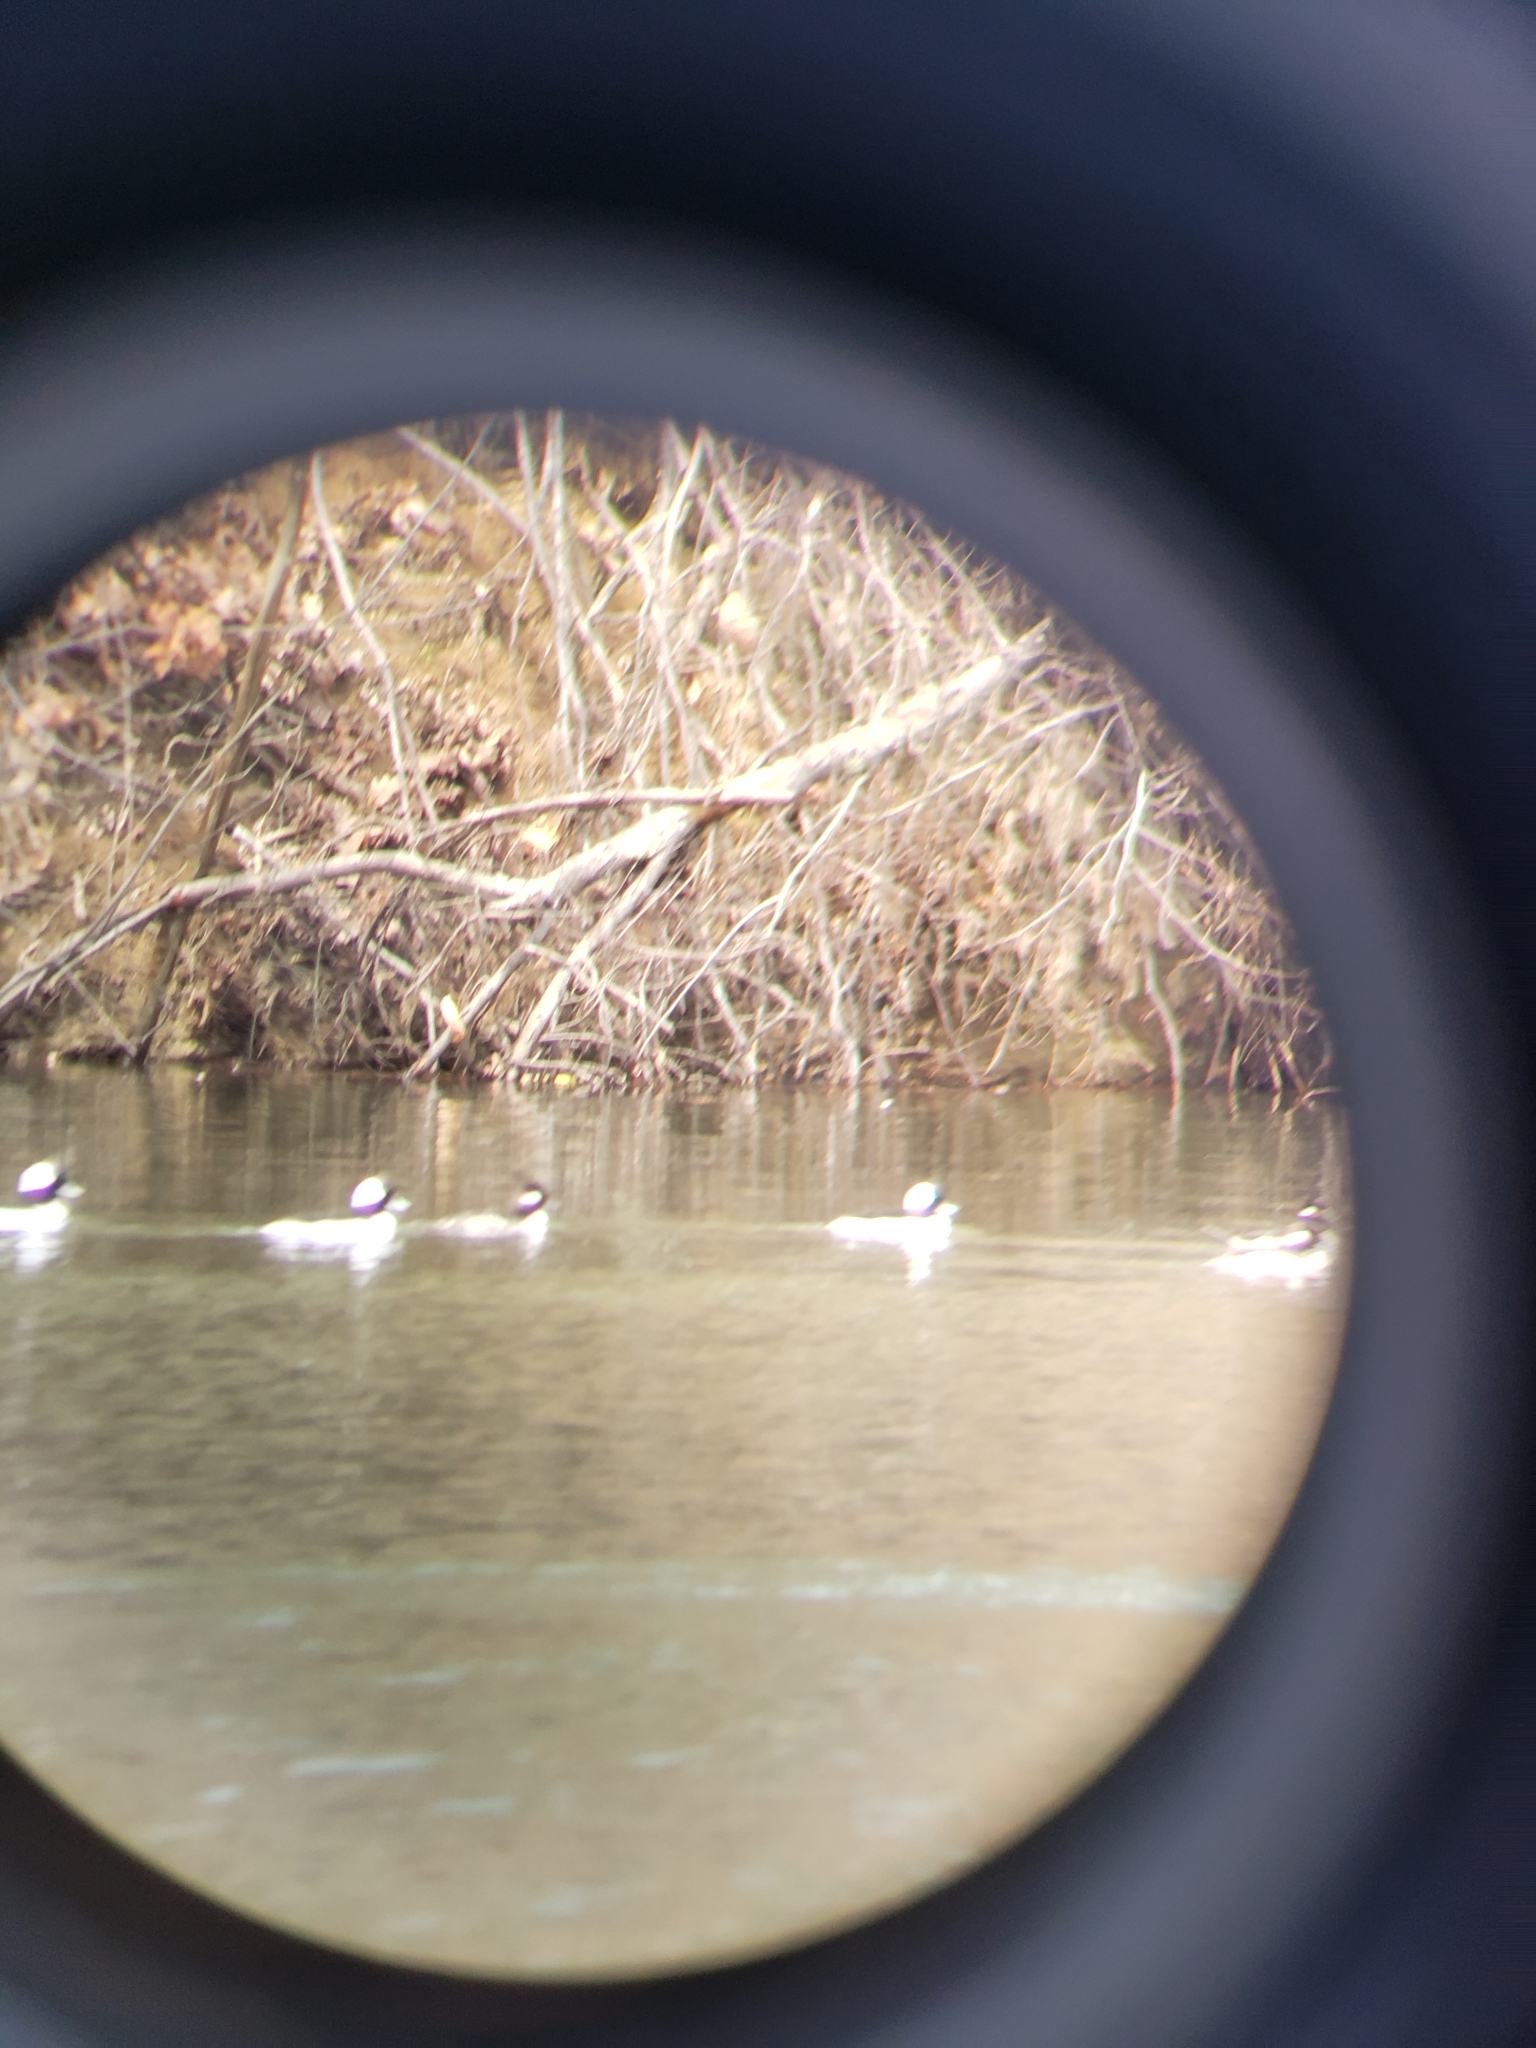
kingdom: Animalia
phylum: Chordata
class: Aves
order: Anseriformes
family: Anatidae
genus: Bucephala
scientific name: Bucephala albeola
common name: Bufflehead
